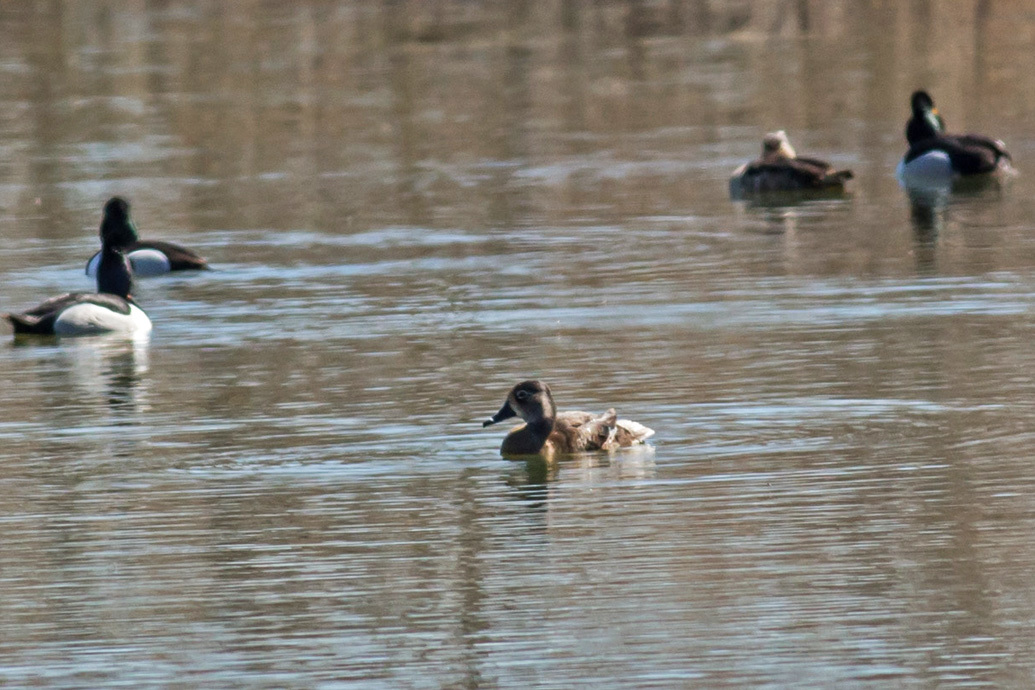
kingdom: Animalia
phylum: Chordata
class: Aves
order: Anseriformes
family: Anatidae
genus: Aythya
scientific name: Aythya collaris
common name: Ring-necked duck
